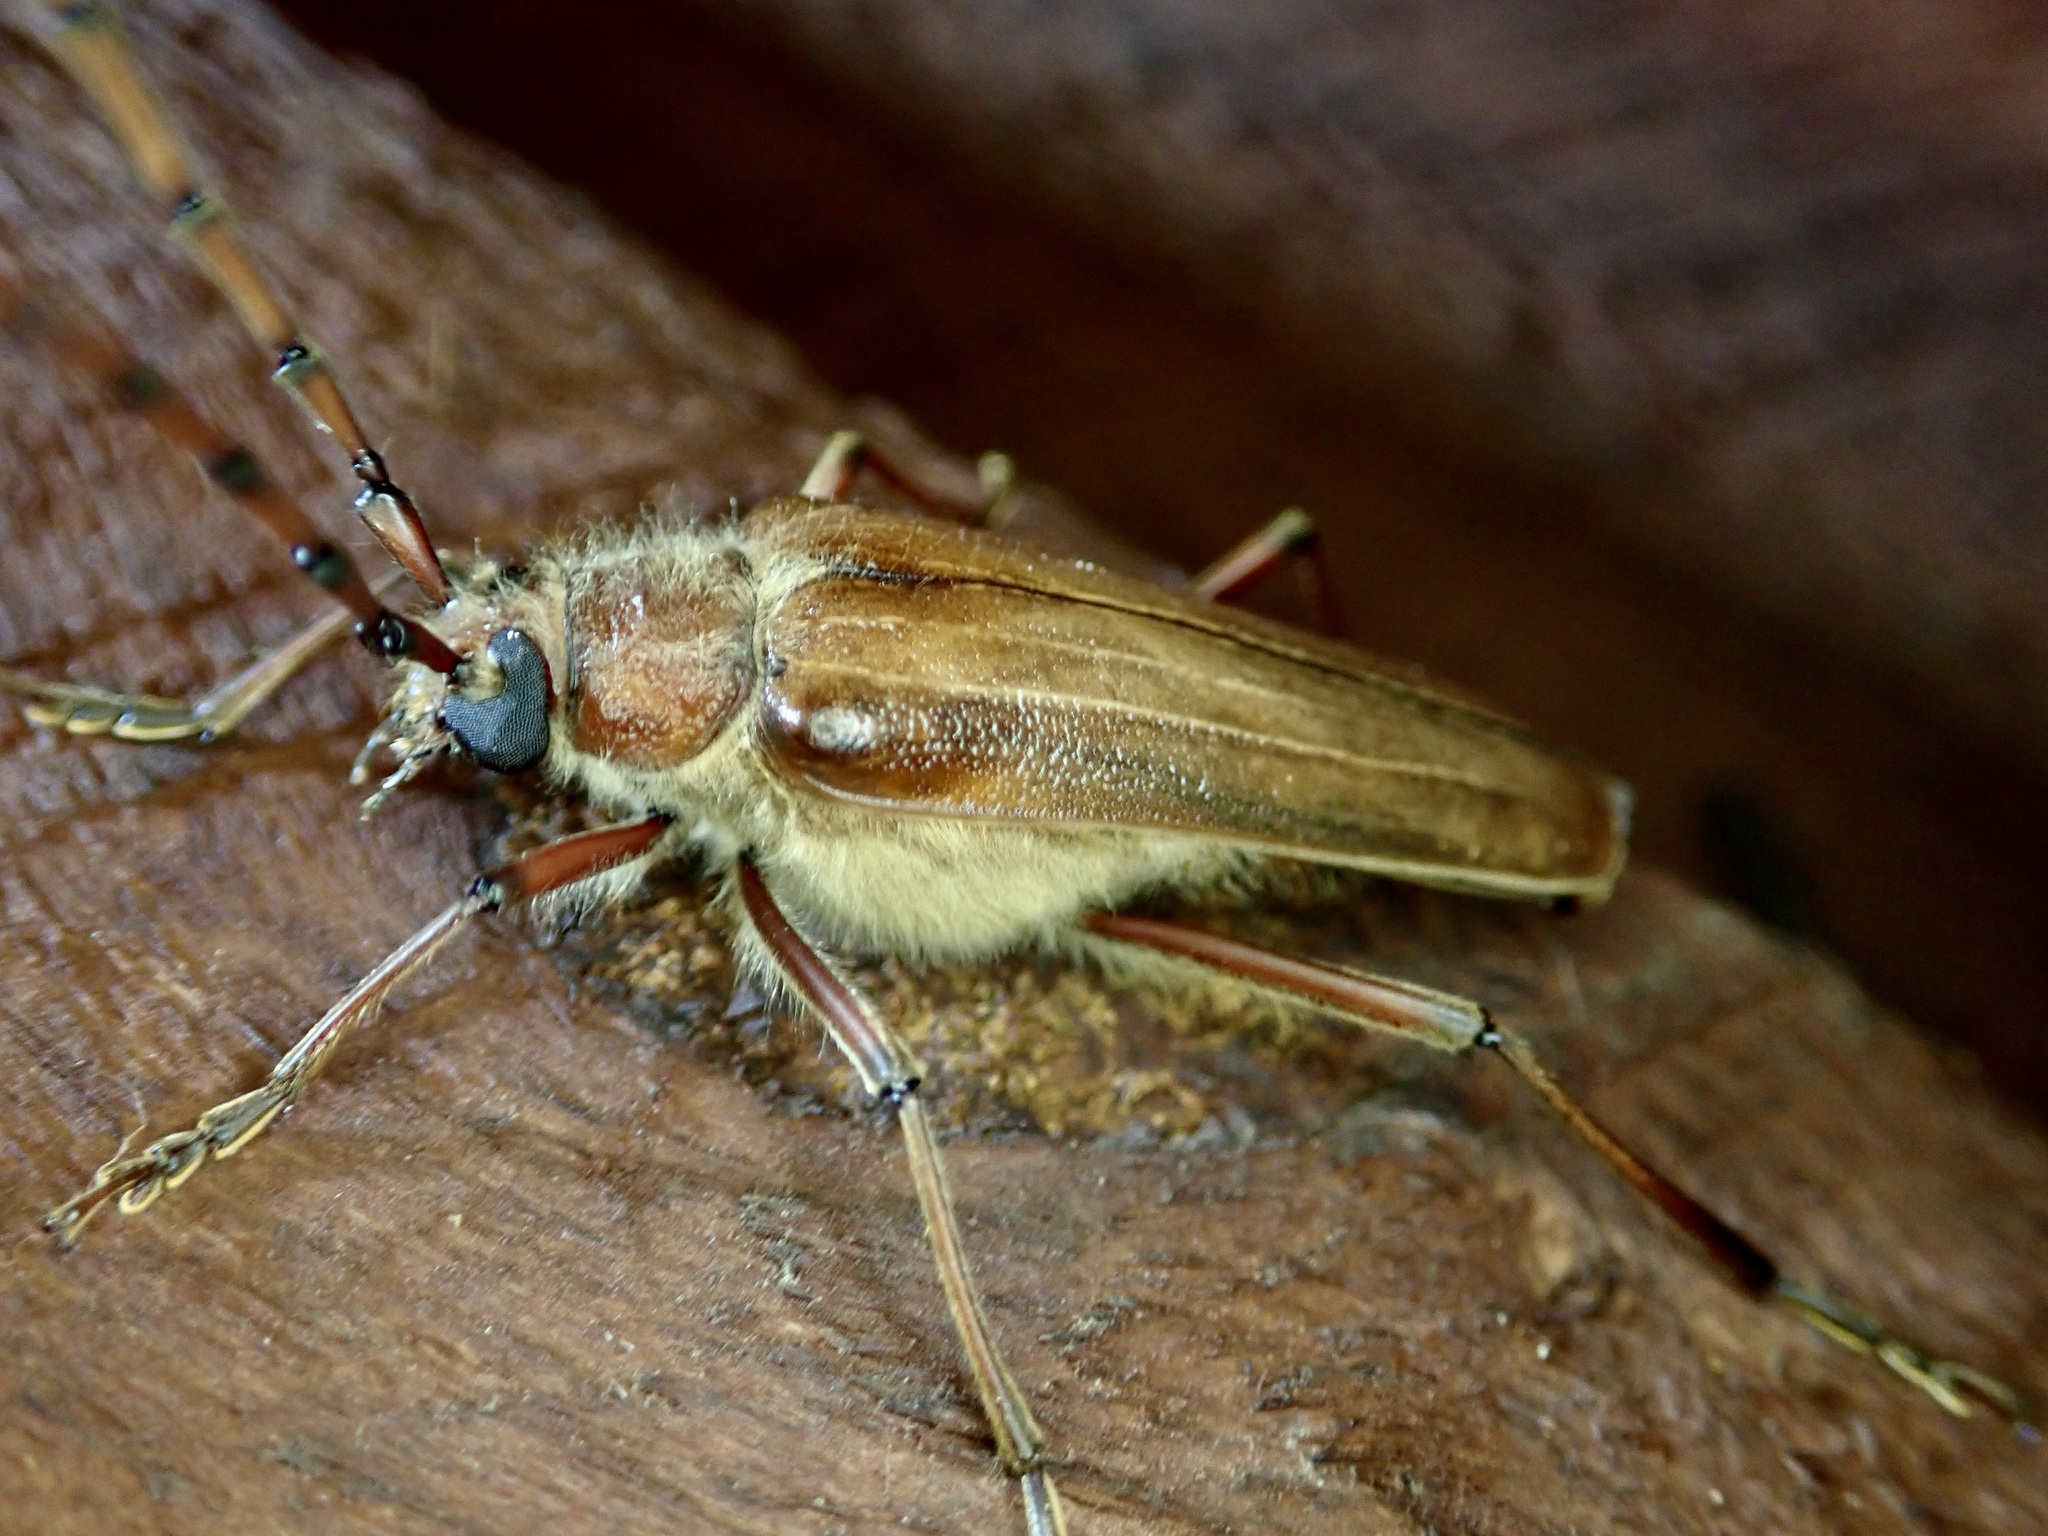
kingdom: Animalia
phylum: Arthropoda
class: Insecta
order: Coleoptera
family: Cerambycidae
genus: Ochrocydus
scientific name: Ochrocydus huttoni
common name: Kanuka longhorn
